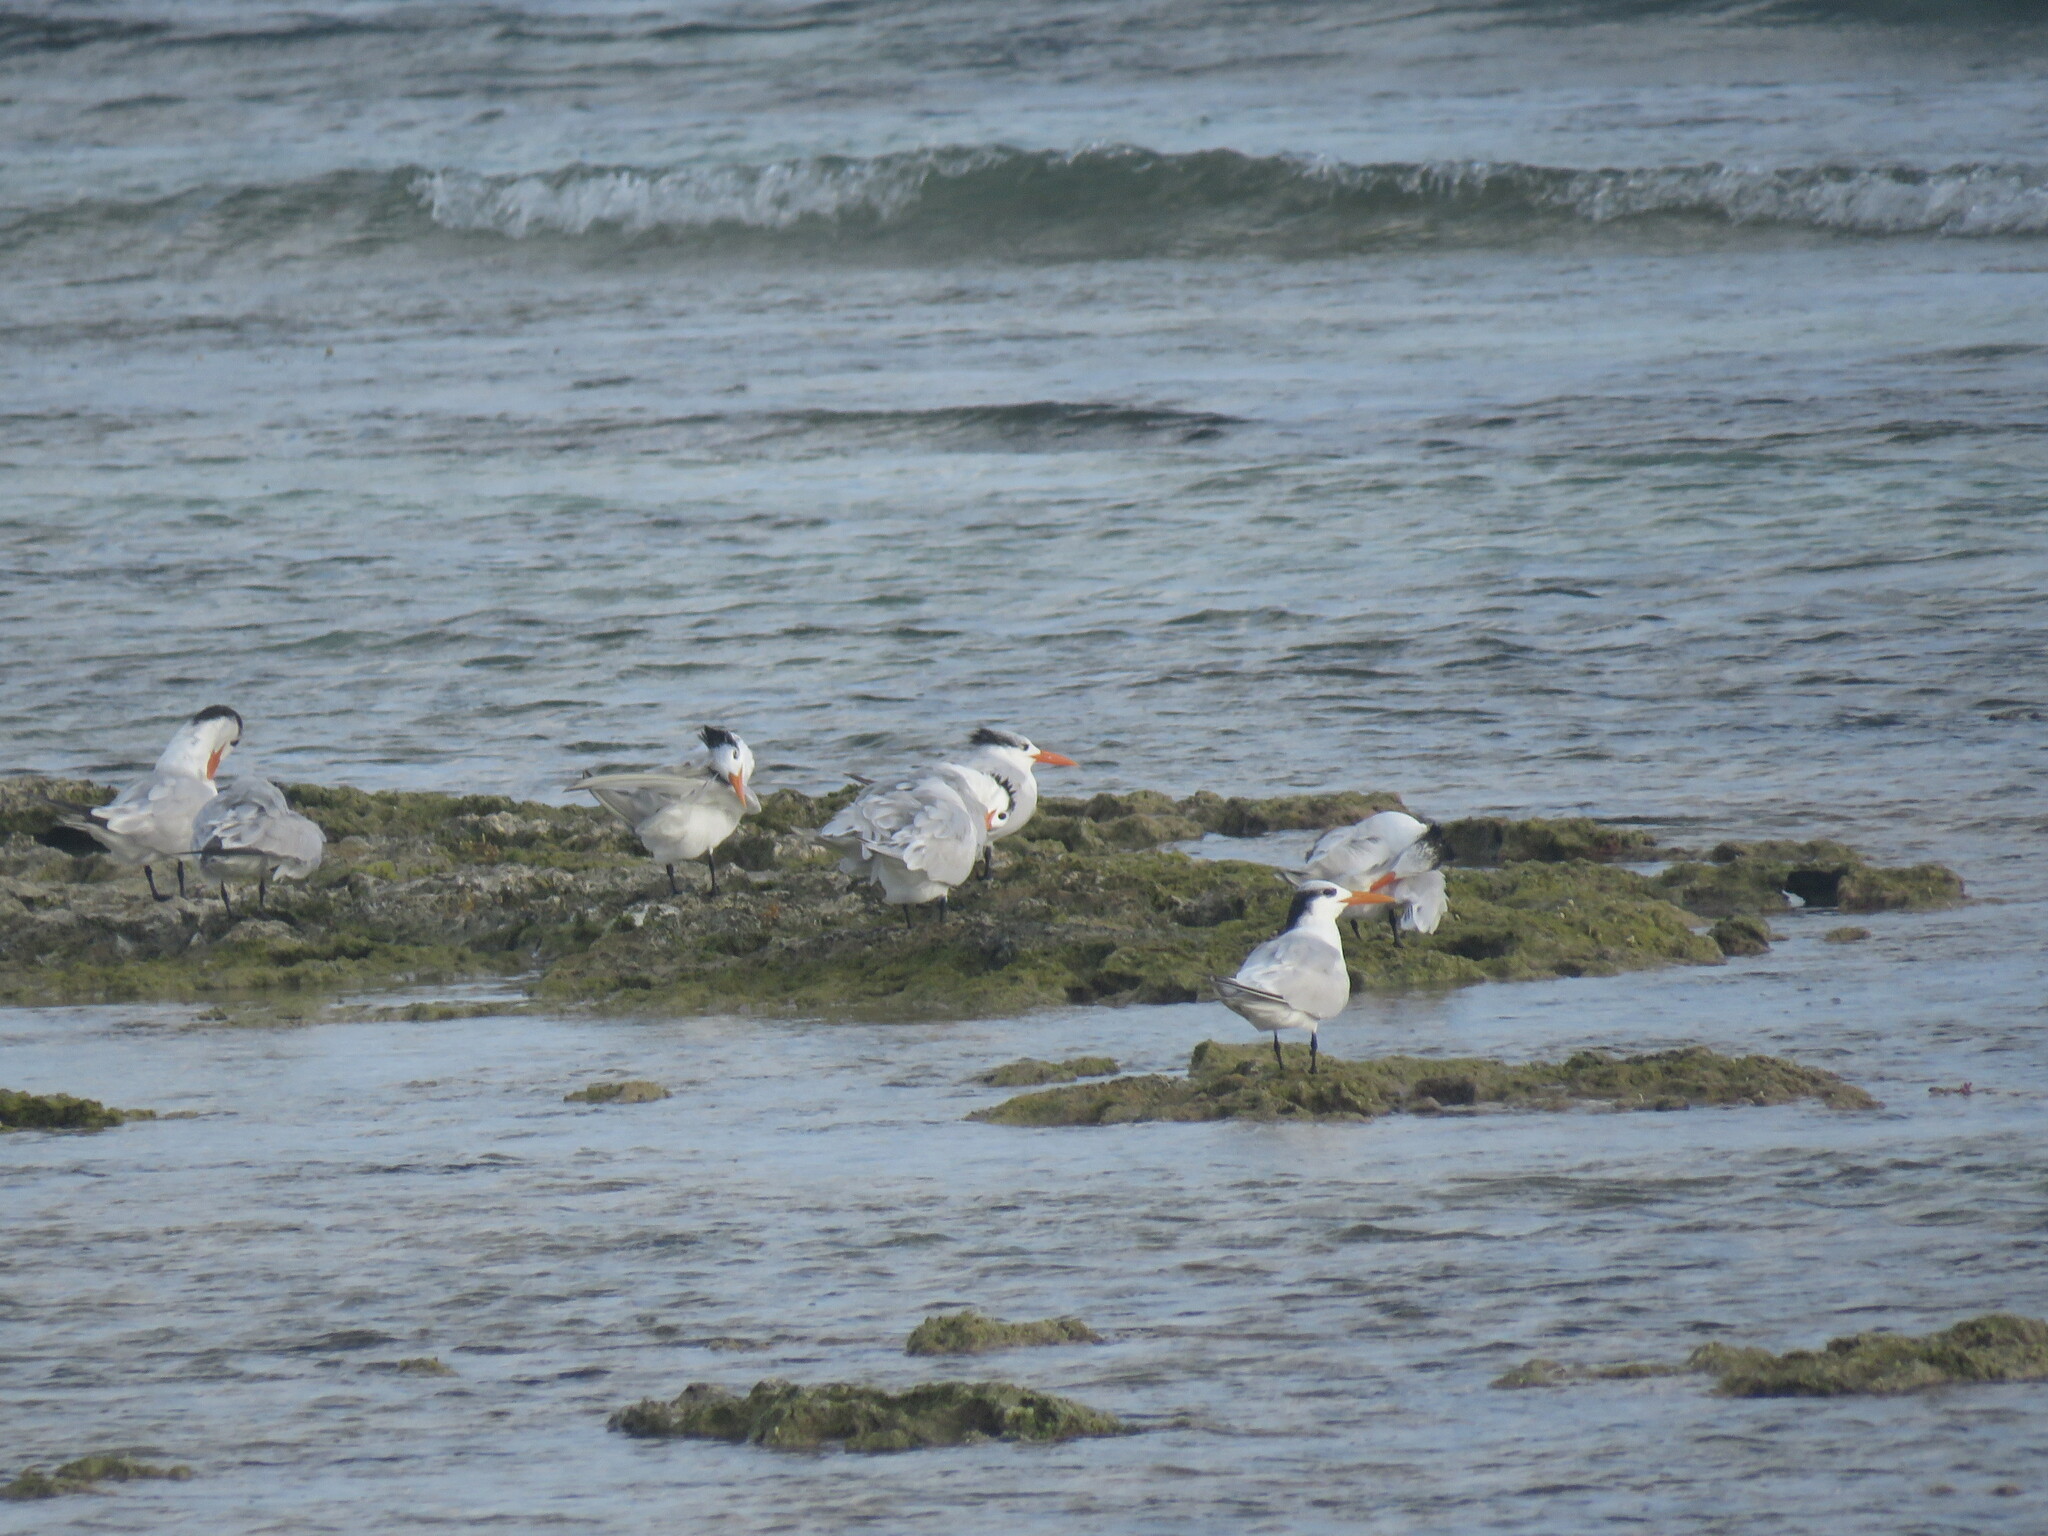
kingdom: Animalia
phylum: Chordata
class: Aves
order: Charadriiformes
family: Laridae
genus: Thalasseus
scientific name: Thalasseus maximus
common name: Royal tern
